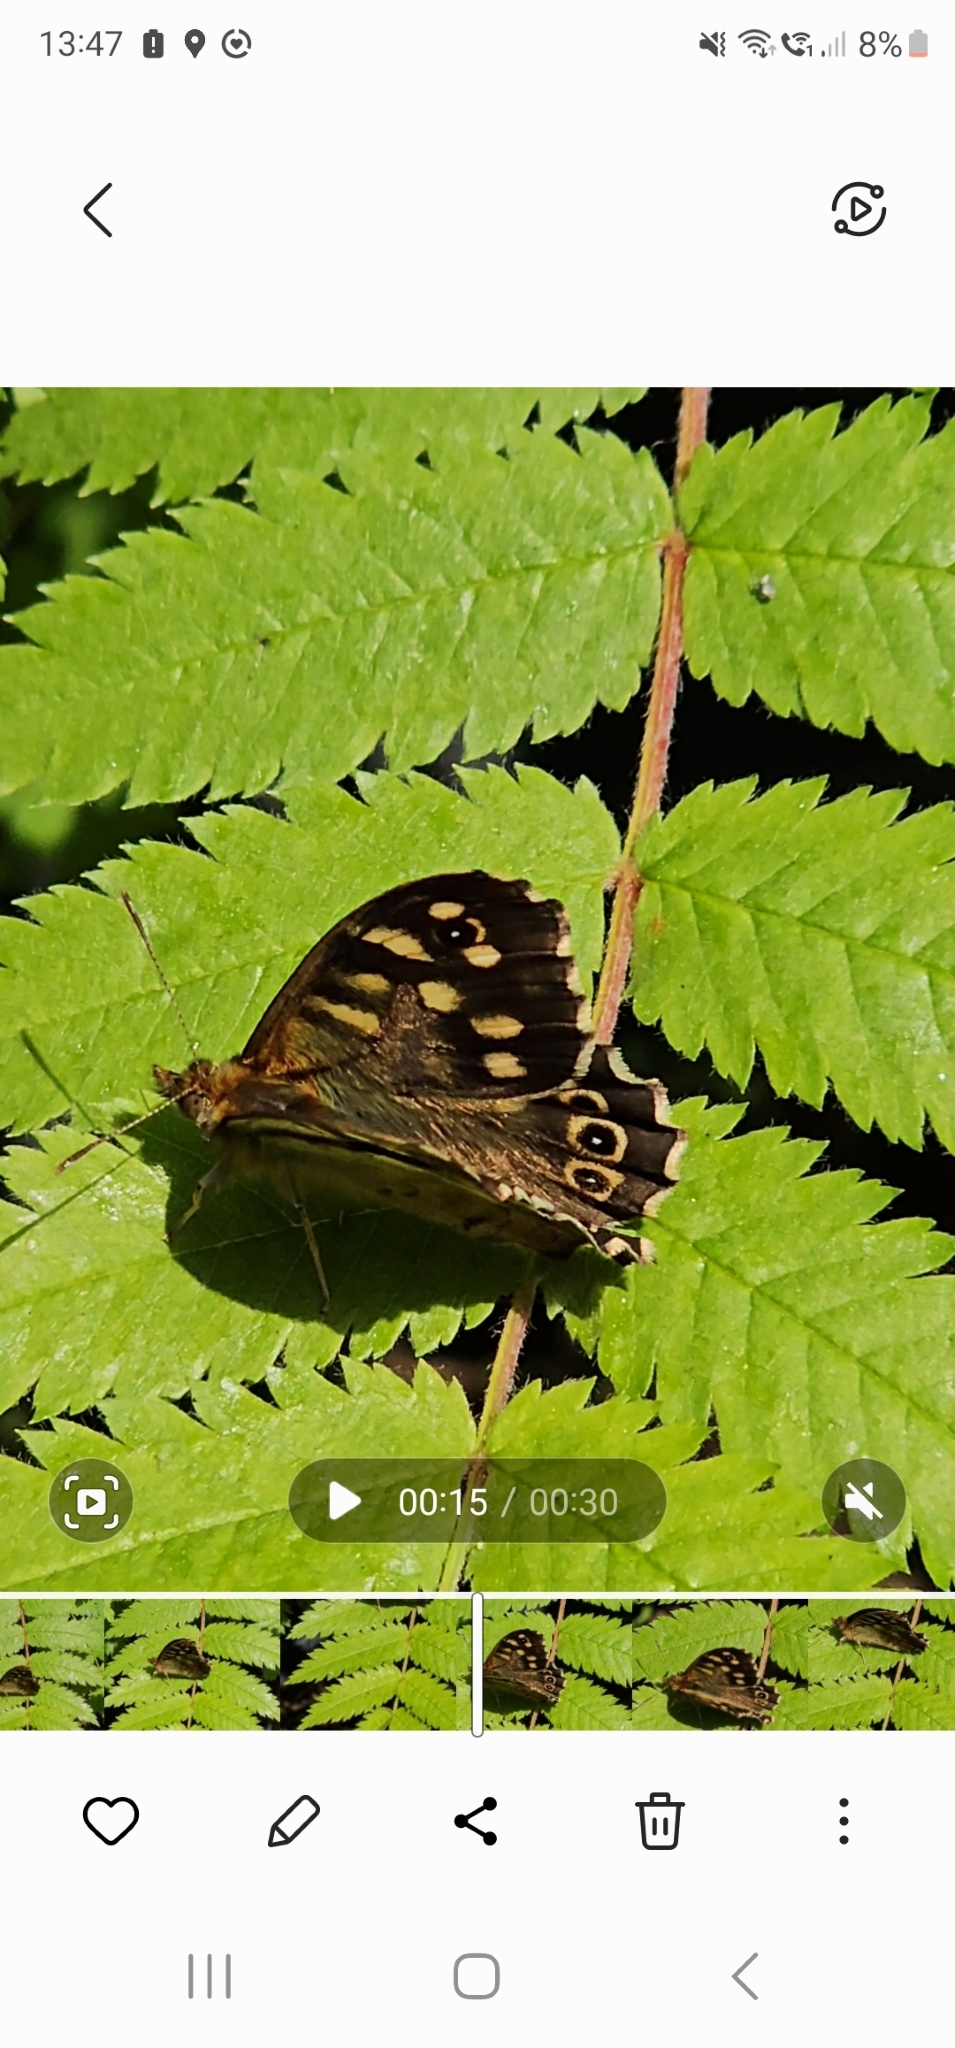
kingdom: Animalia
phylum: Arthropoda
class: Insecta
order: Lepidoptera
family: Nymphalidae
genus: Pararge
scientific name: Pararge aegeria
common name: Speckled wood
